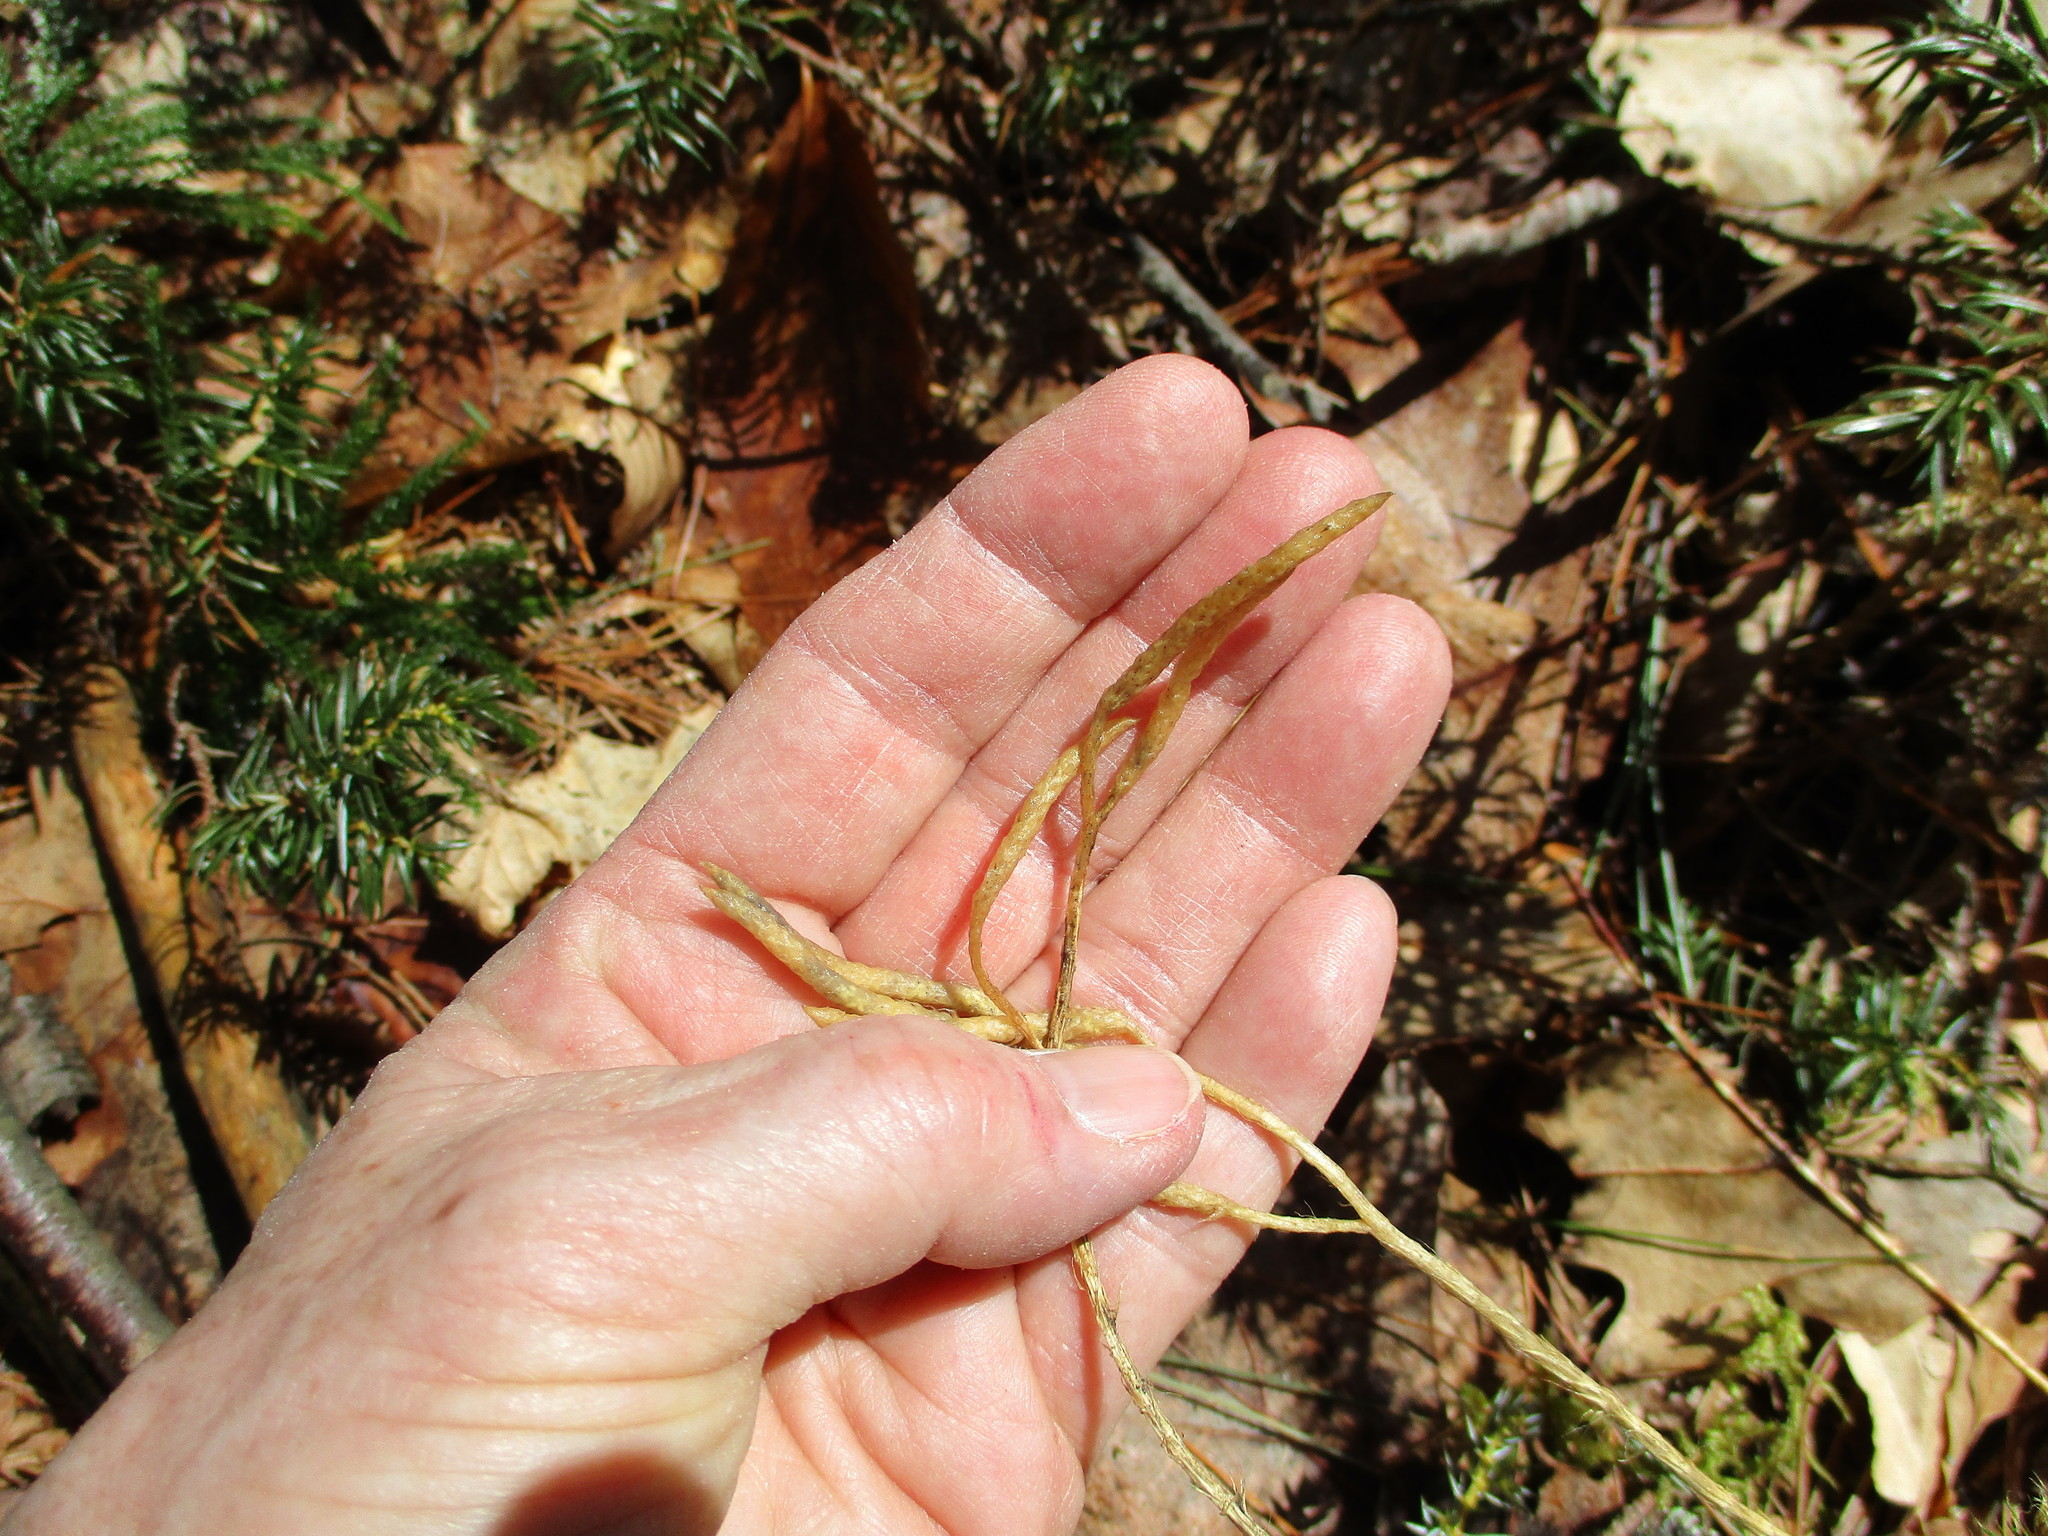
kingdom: Plantae
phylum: Tracheophyta
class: Lycopodiopsida
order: Lycopodiales
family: Lycopodiaceae
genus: Lycopodium
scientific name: Lycopodium clavatum
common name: Stag's-horn clubmoss
